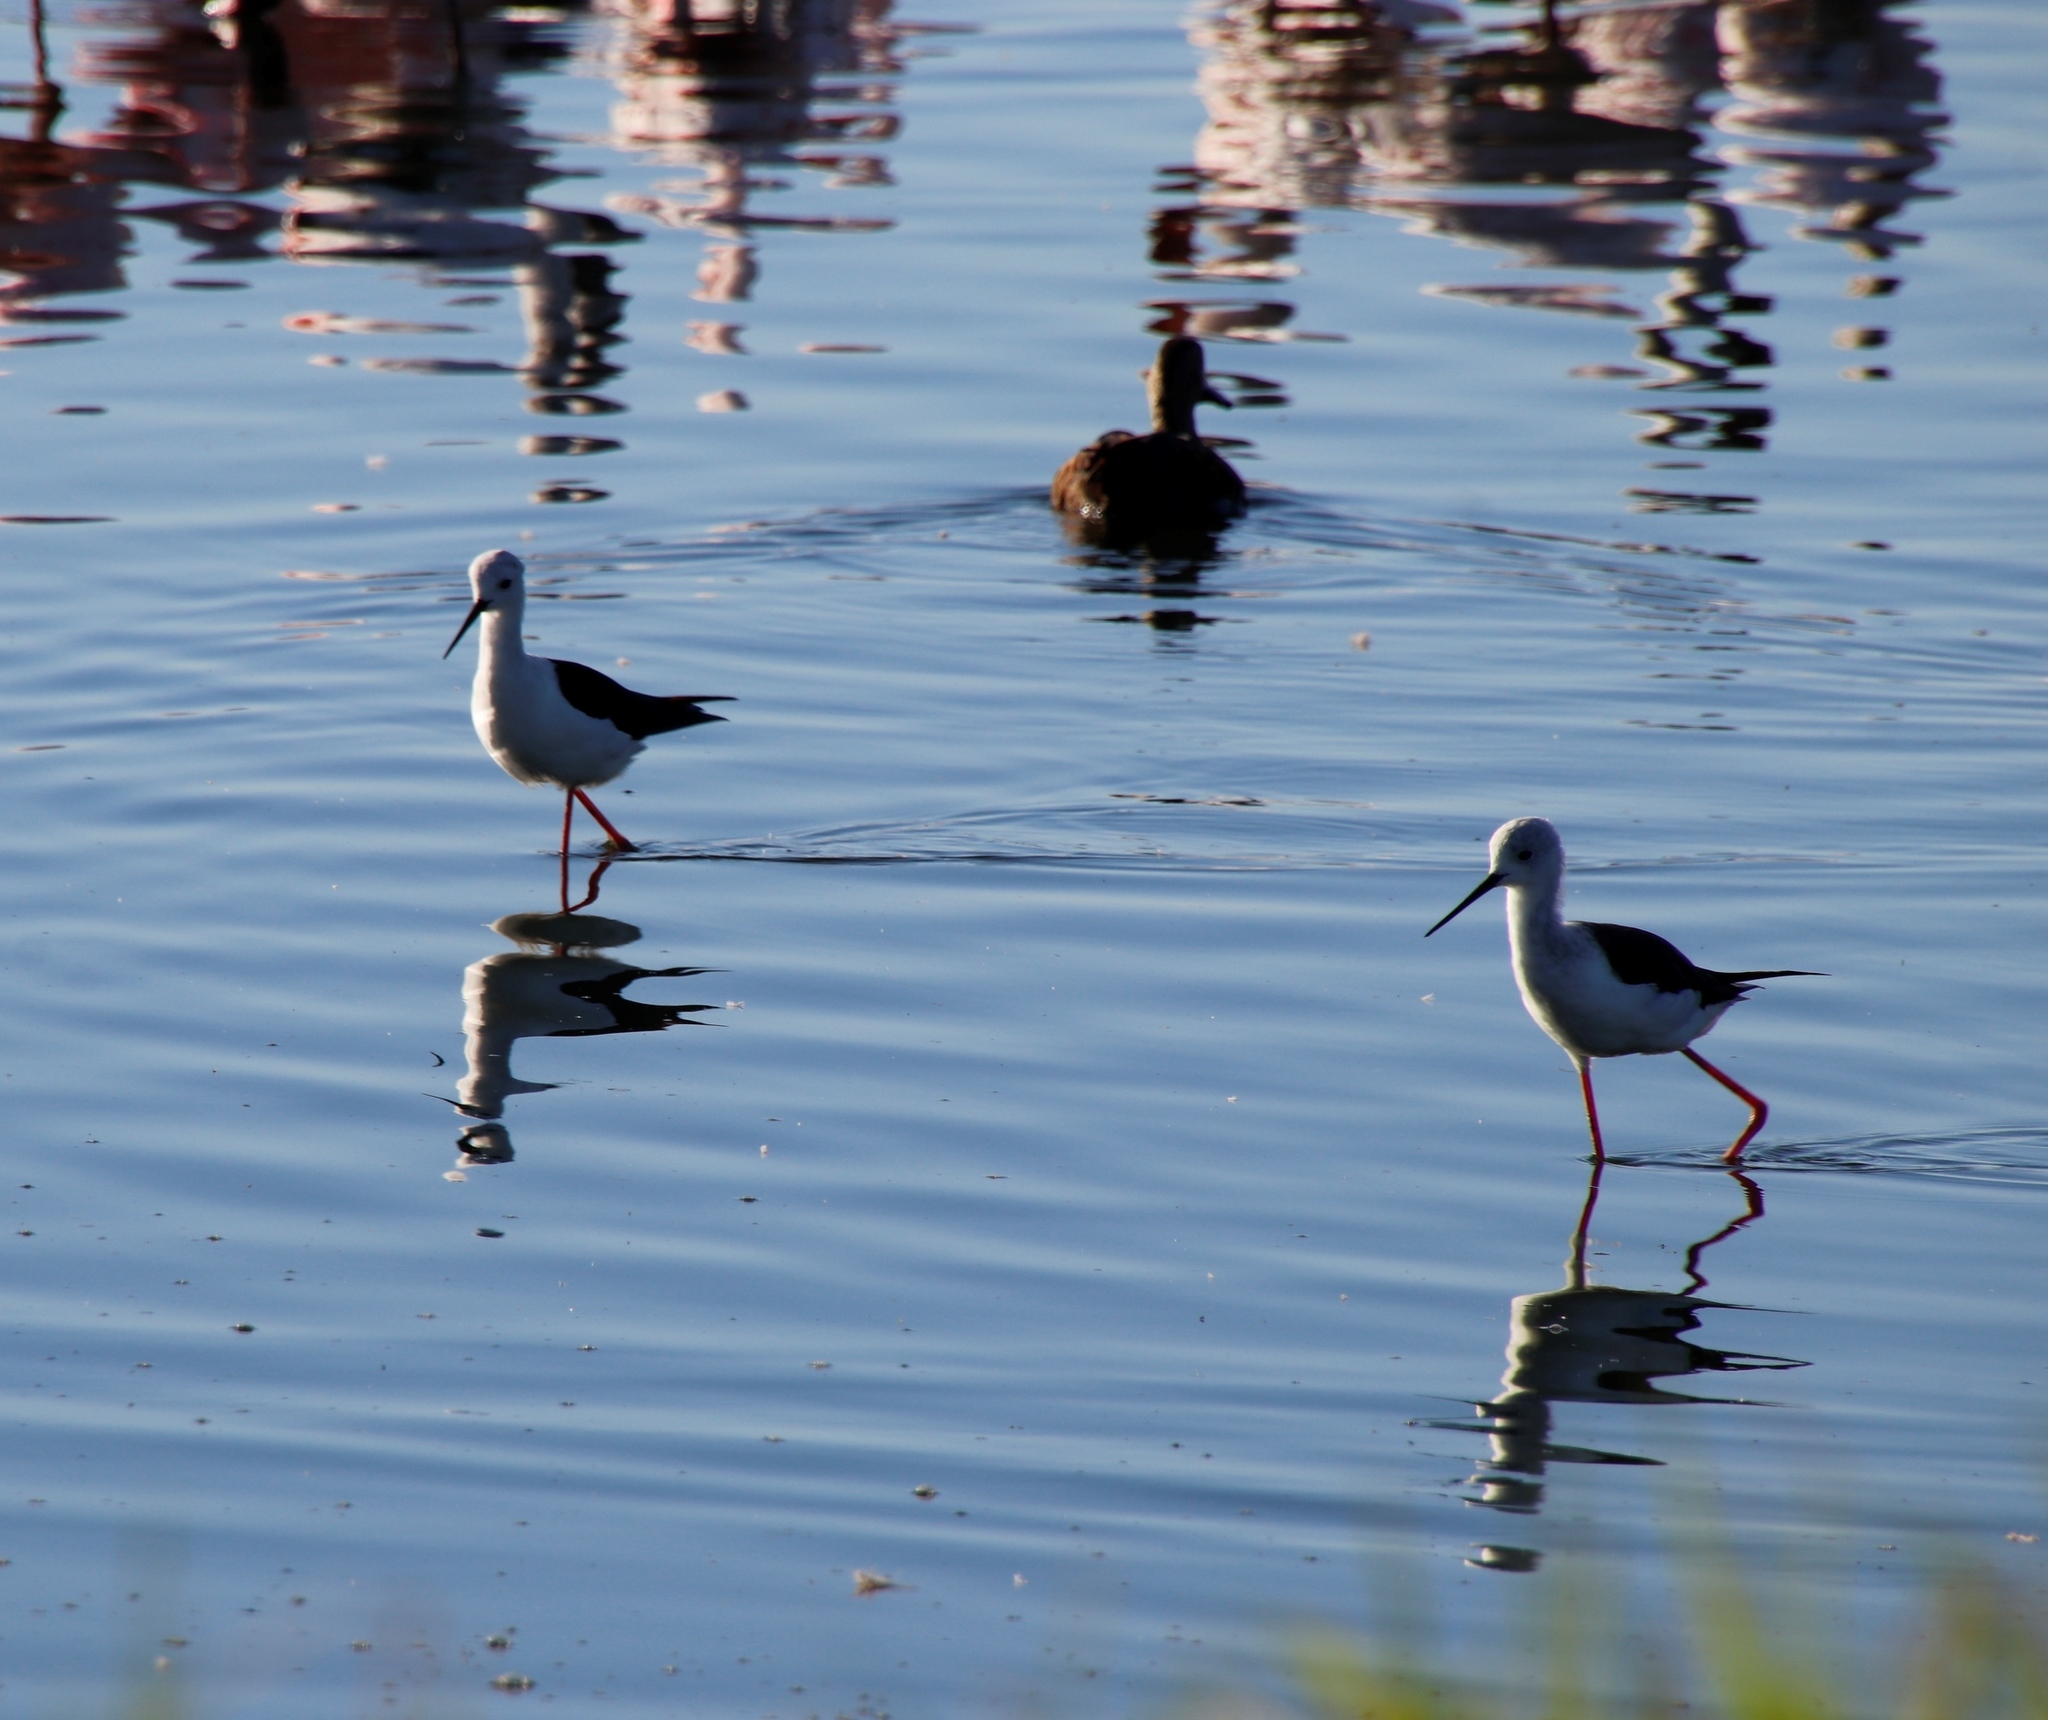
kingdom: Animalia
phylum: Chordata
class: Aves
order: Charadriiformes
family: Recurvirostridae
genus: Himantopus
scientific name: Himantopus himantopus
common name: Black-winged stilt
